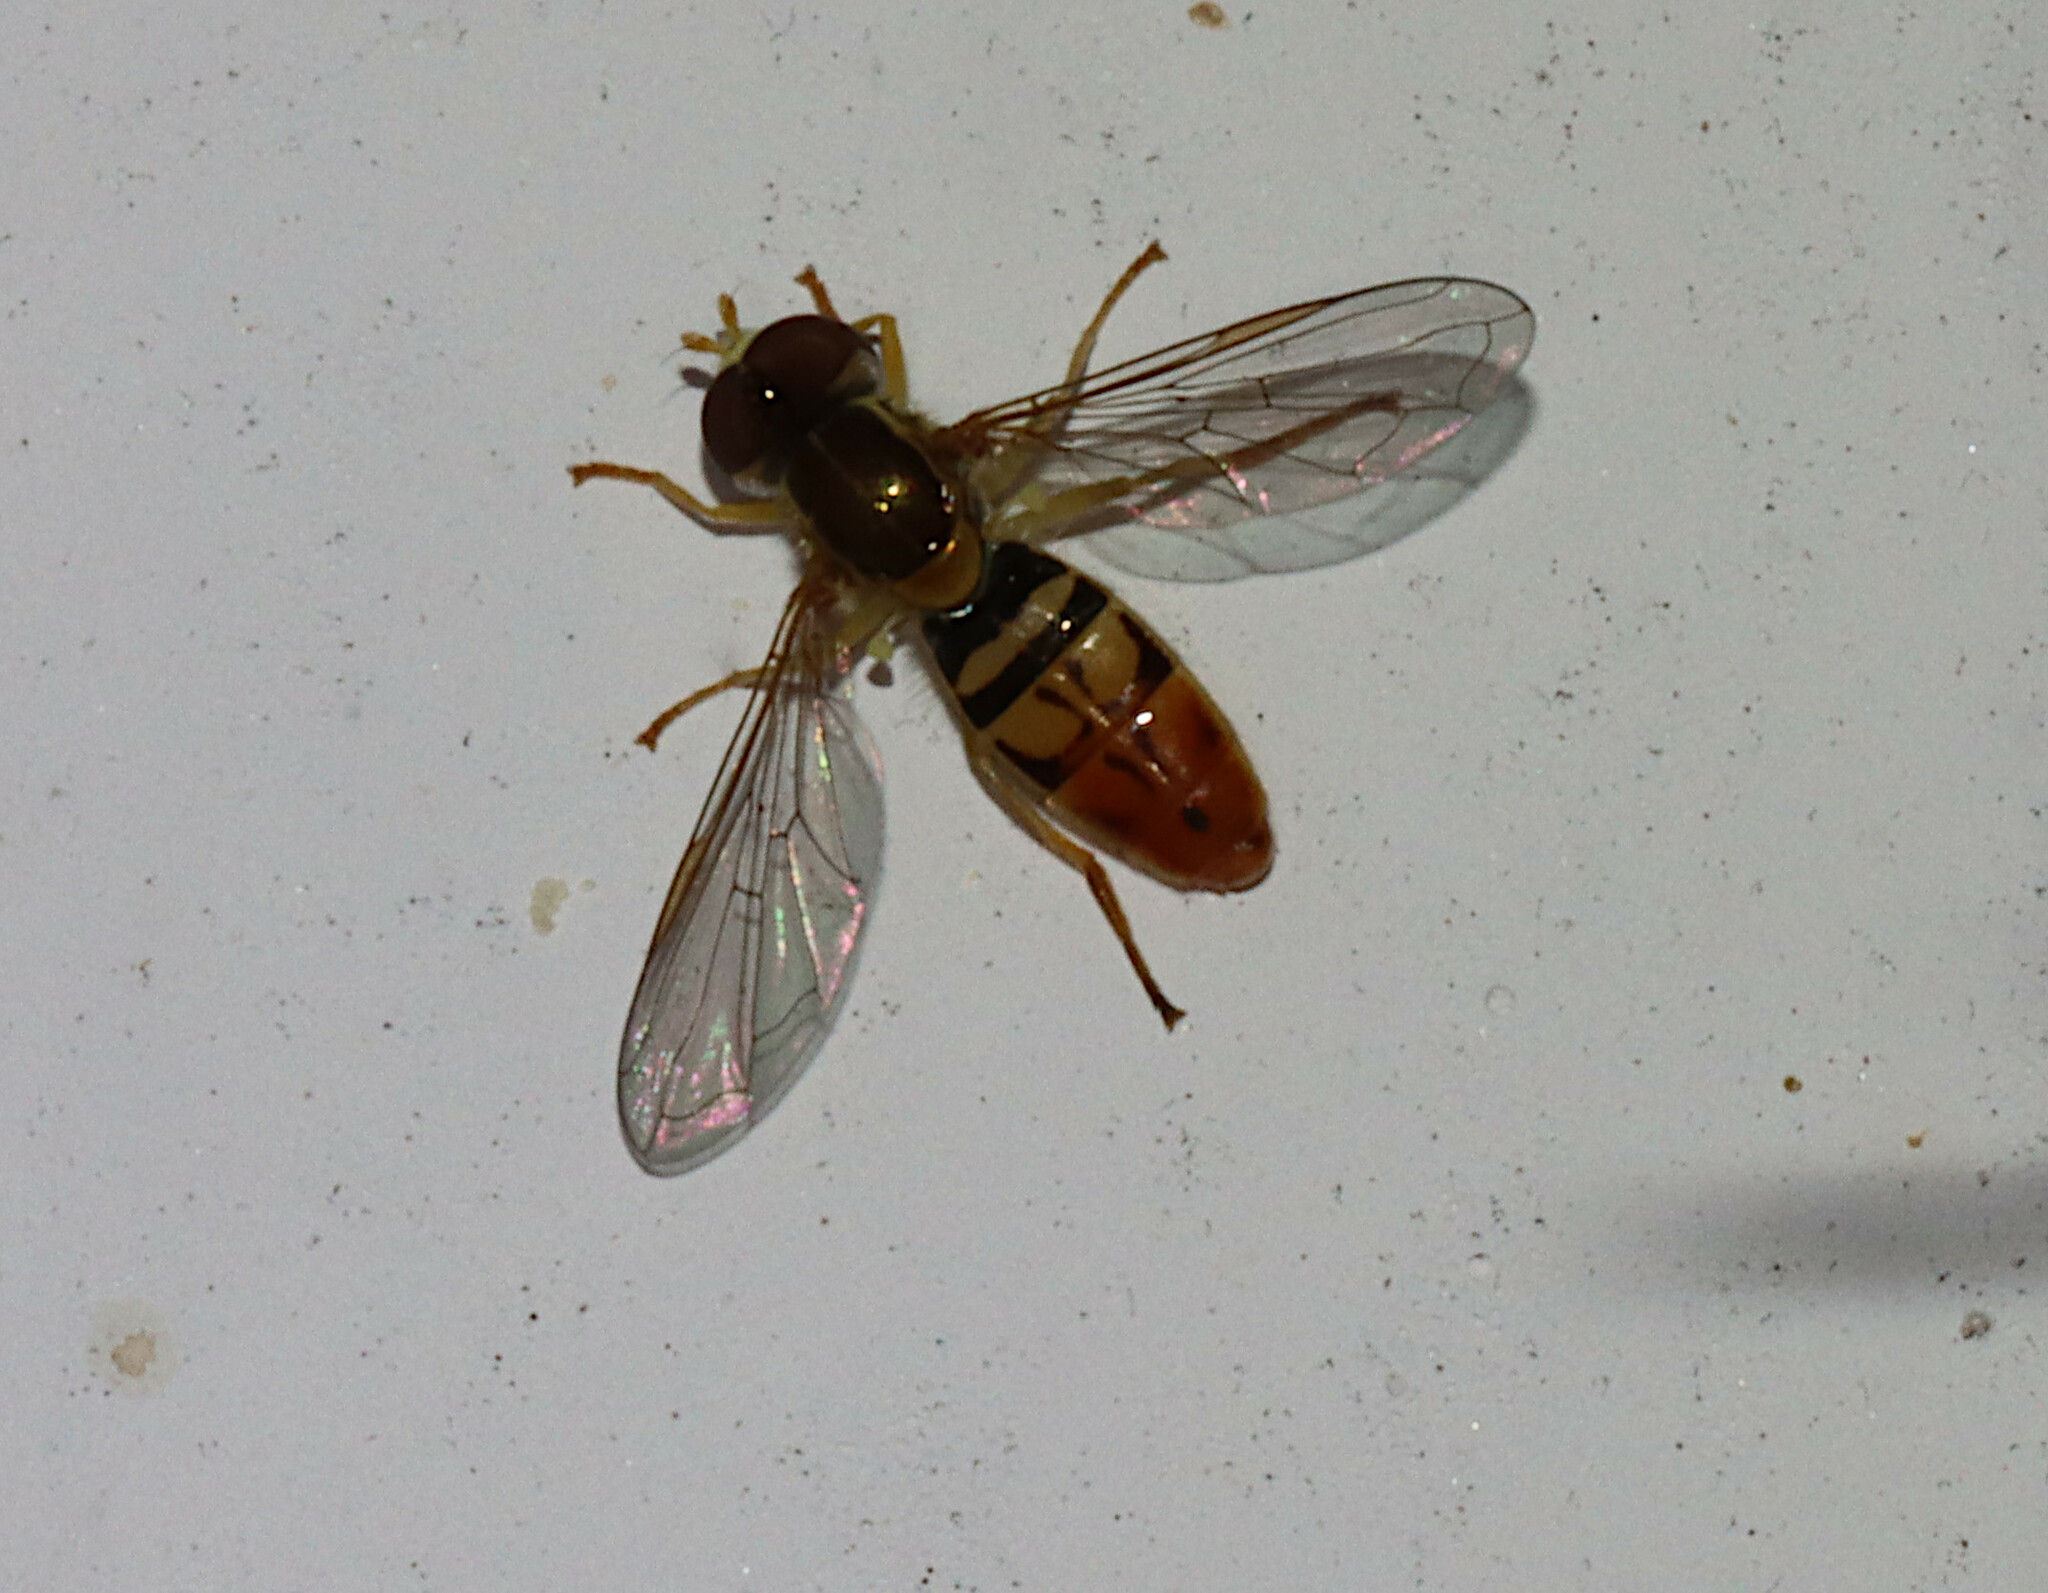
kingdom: Animalia
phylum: Arthropoda
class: Insecta
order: Diptera
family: Syrphidae
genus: Toxomerus
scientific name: Toxomerus marginatus
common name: Syrphid fly
